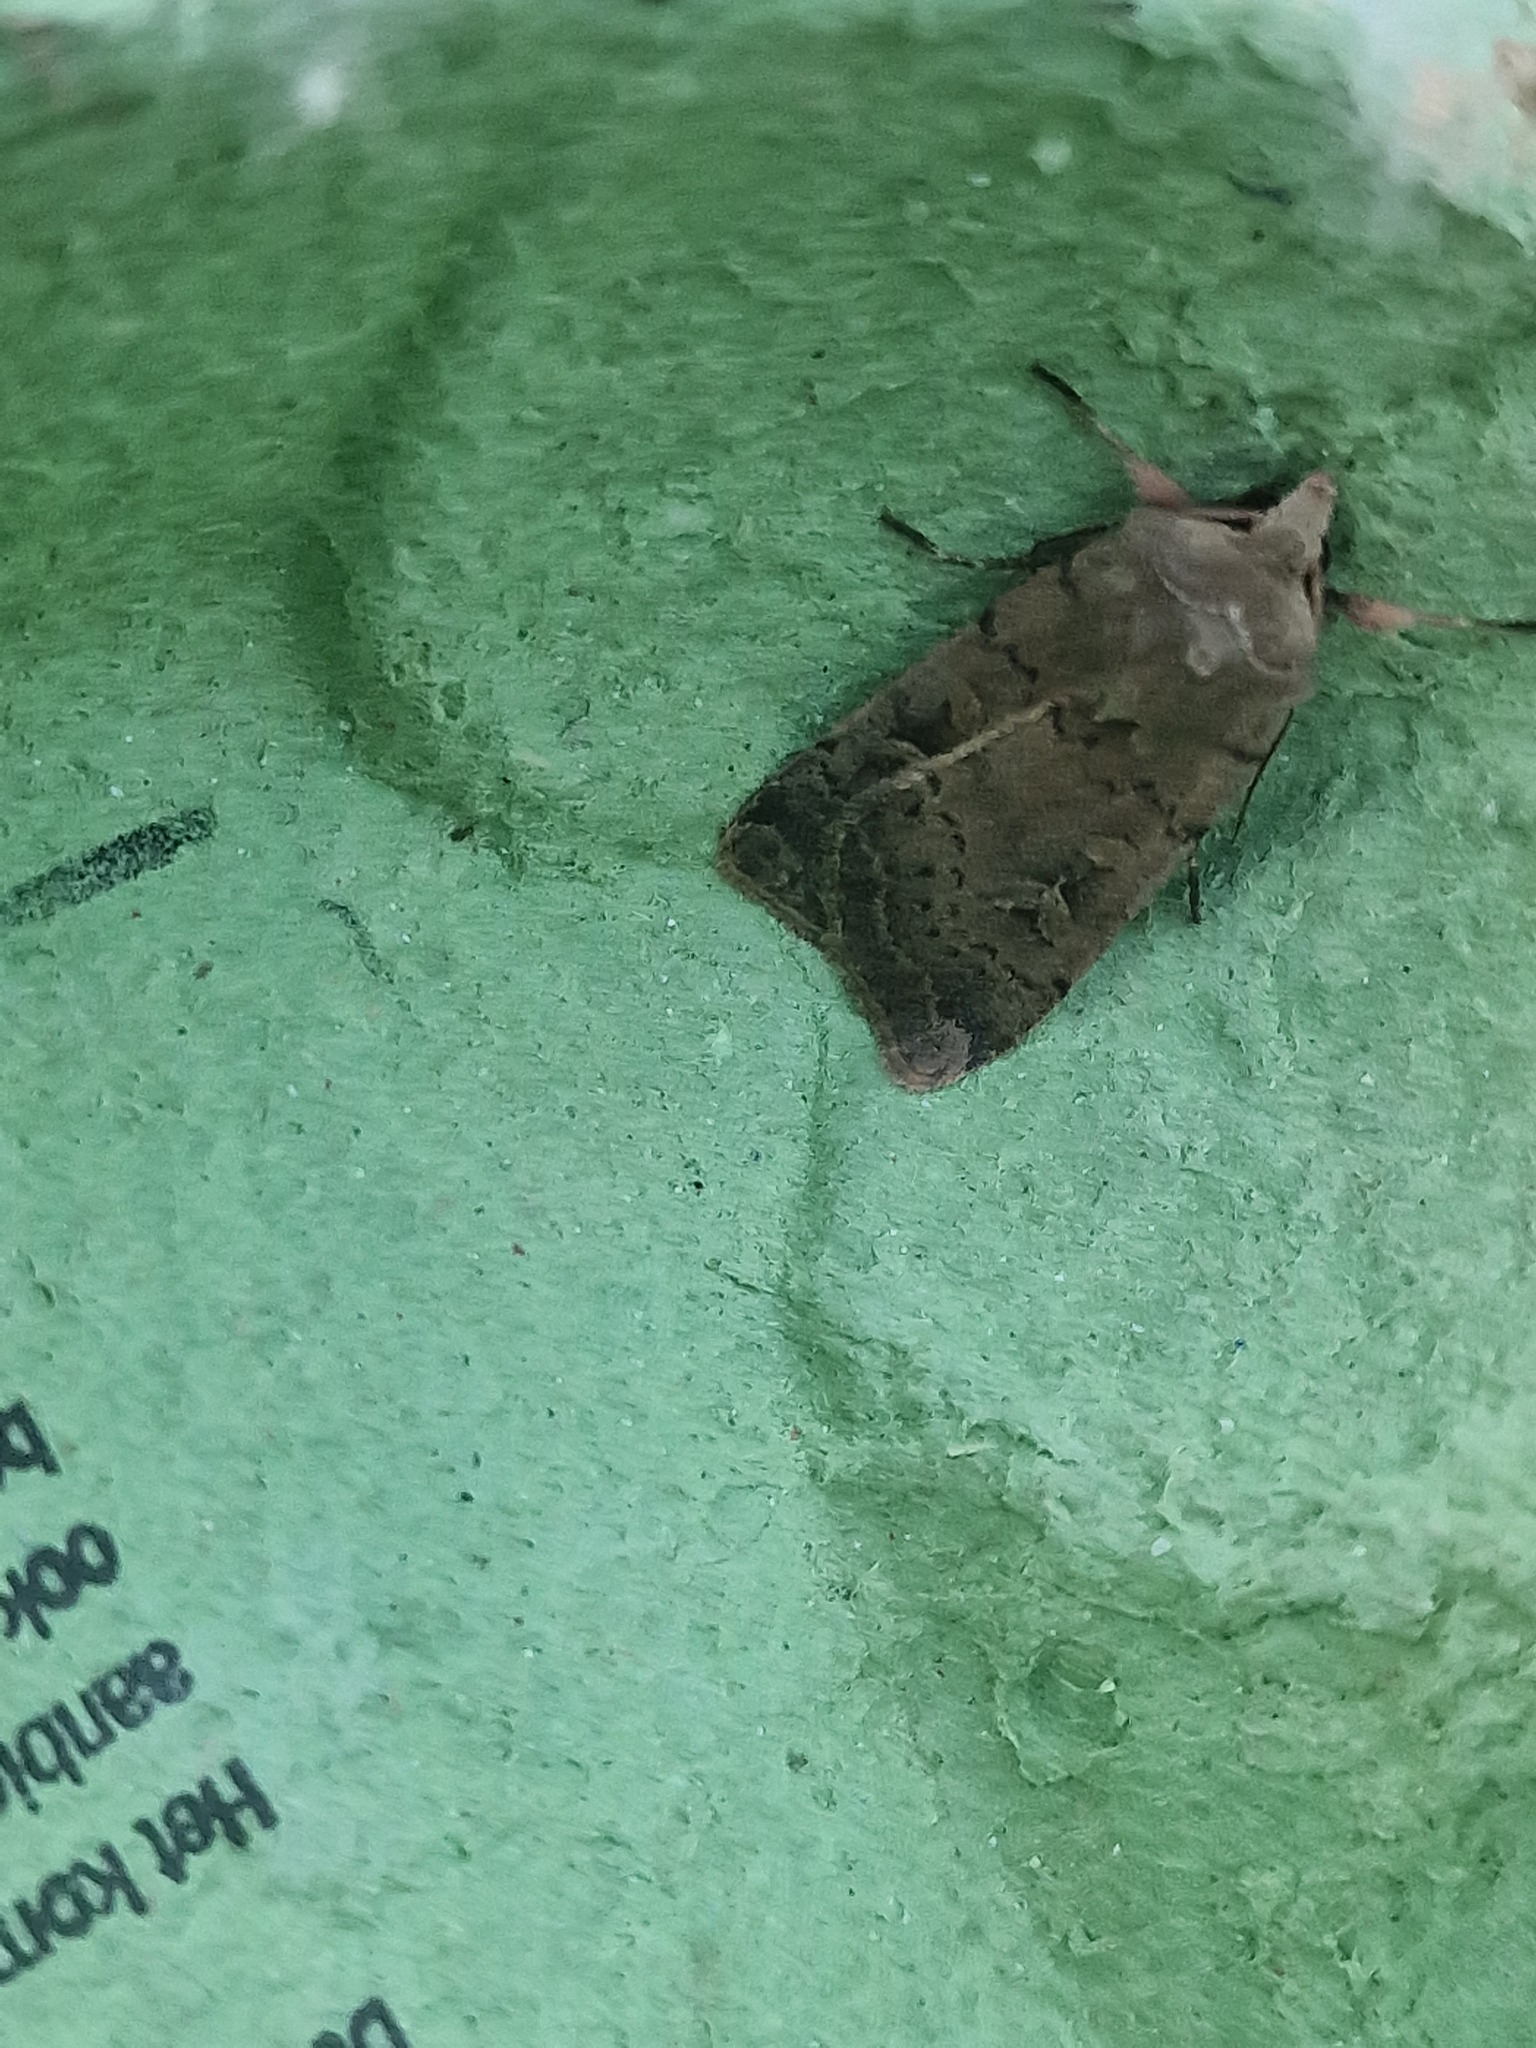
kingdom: Animalia
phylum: Arthropoda
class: Insecta
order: Lepidoptera
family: Noctuidae
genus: Xestia
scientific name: Xestia xanthographa
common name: Square-spot rustic
